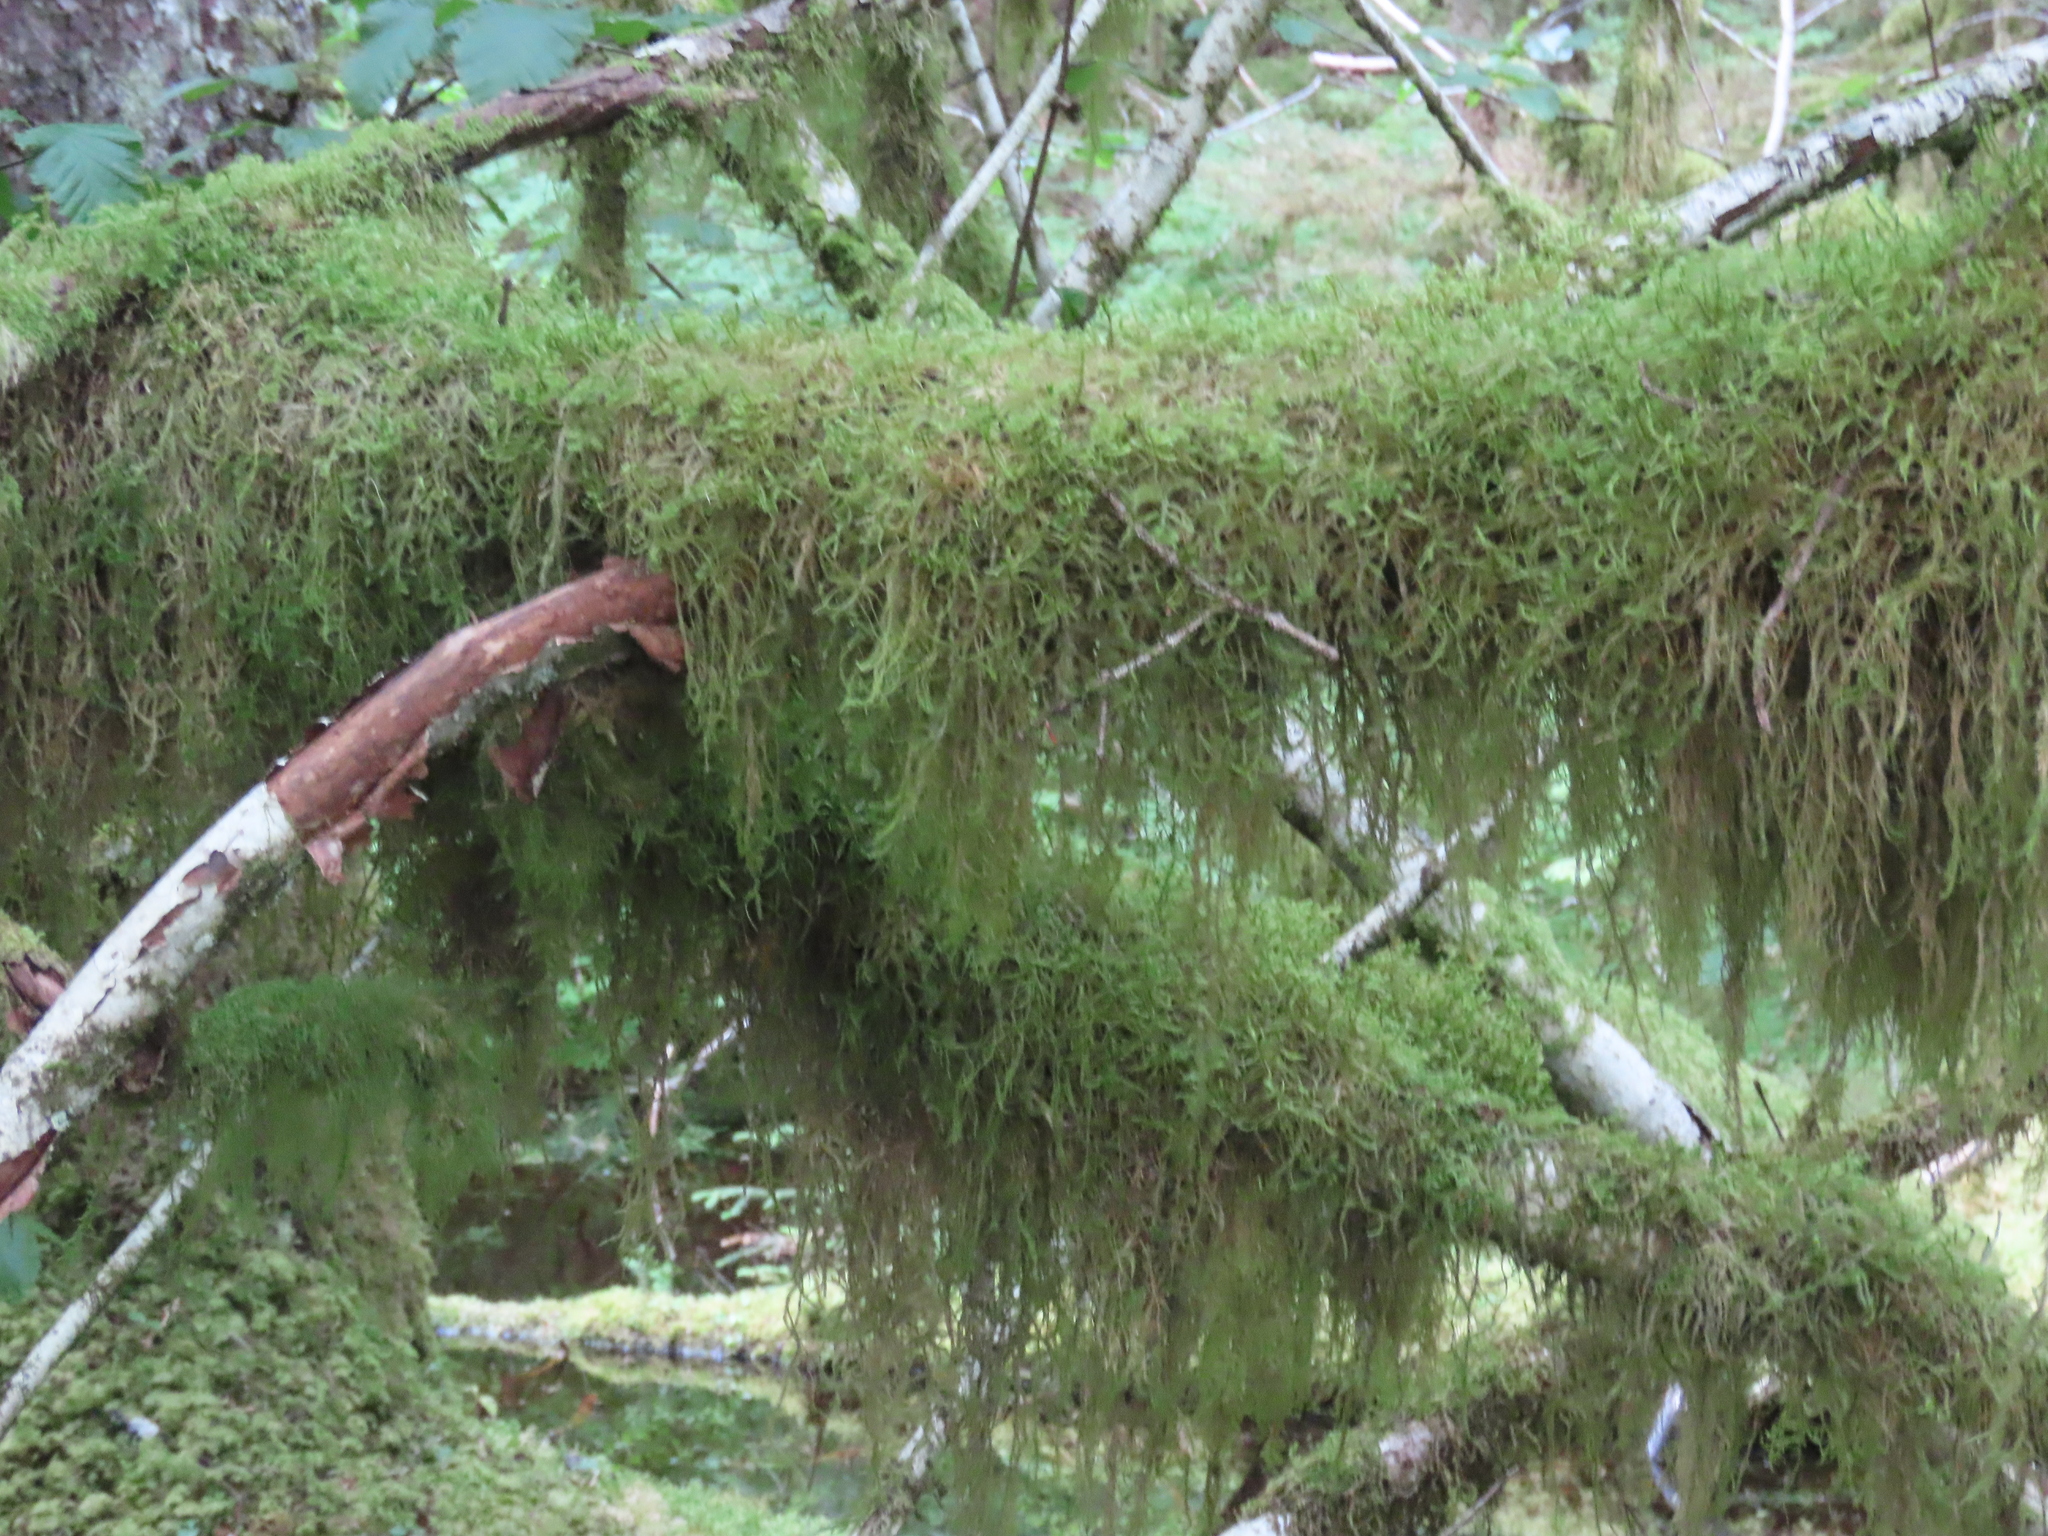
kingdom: Plantae
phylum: Bryophyta
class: Bryopsida
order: Hypnales
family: Lembophyllaceae
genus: Pseudisothecium
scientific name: Pseudisothecium stoloniferum
